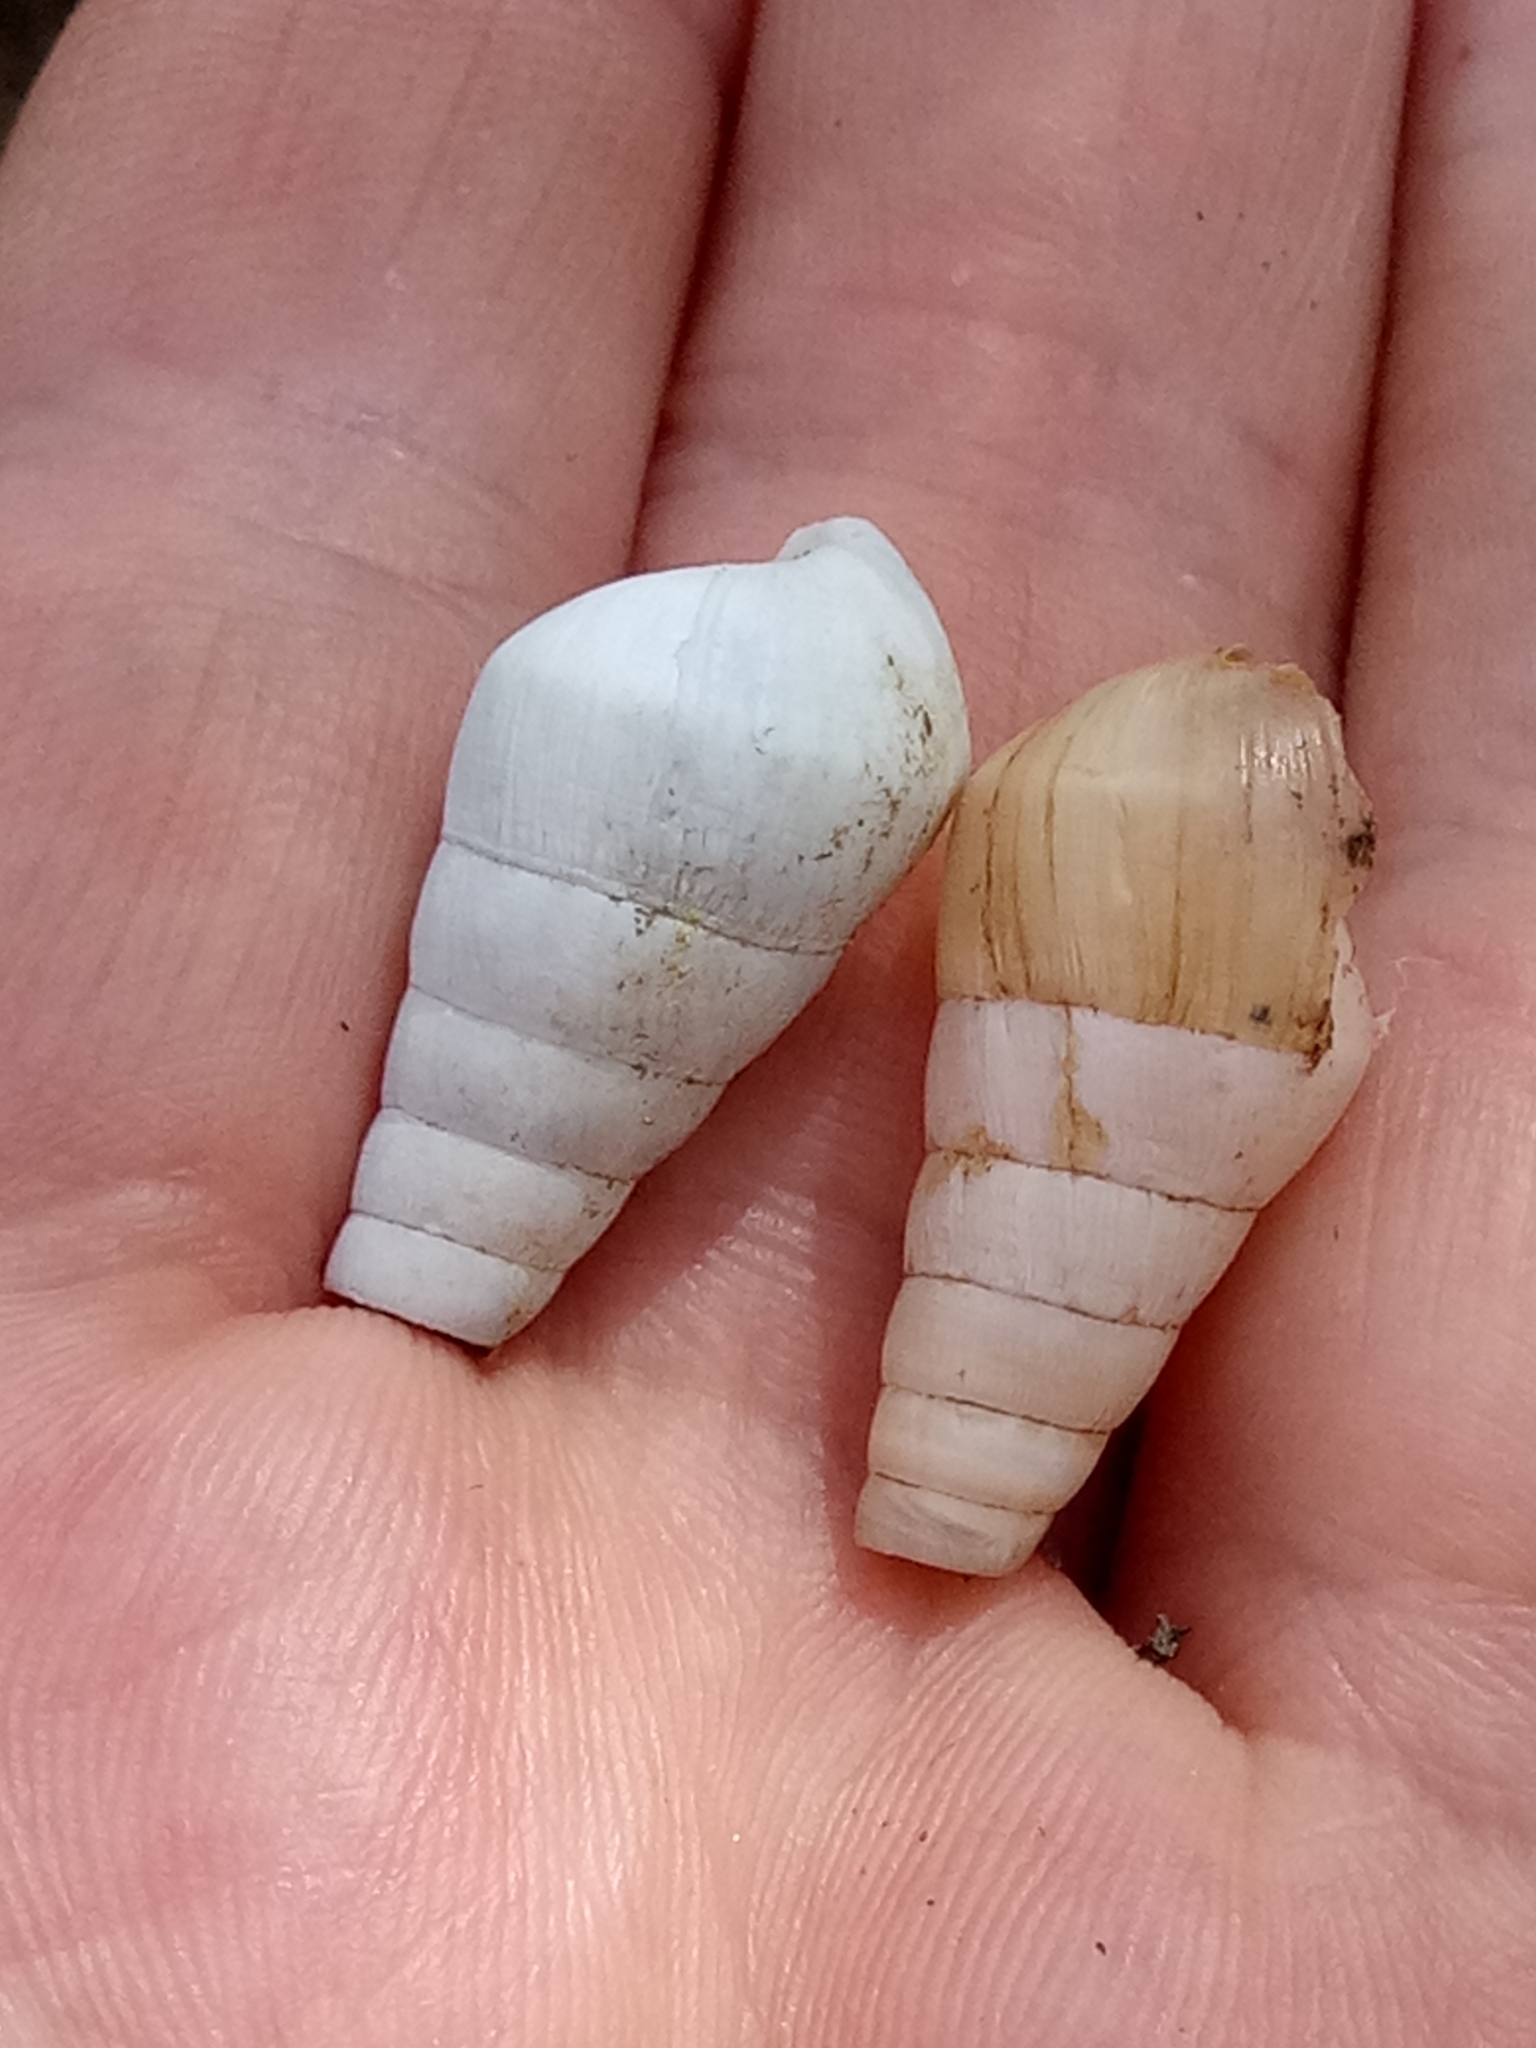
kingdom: Animalia
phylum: Mollusca
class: Gastropoda
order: Stylommatophora
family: Achatinidae
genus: Rumina
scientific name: Rumina decollata
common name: Decollate snail
